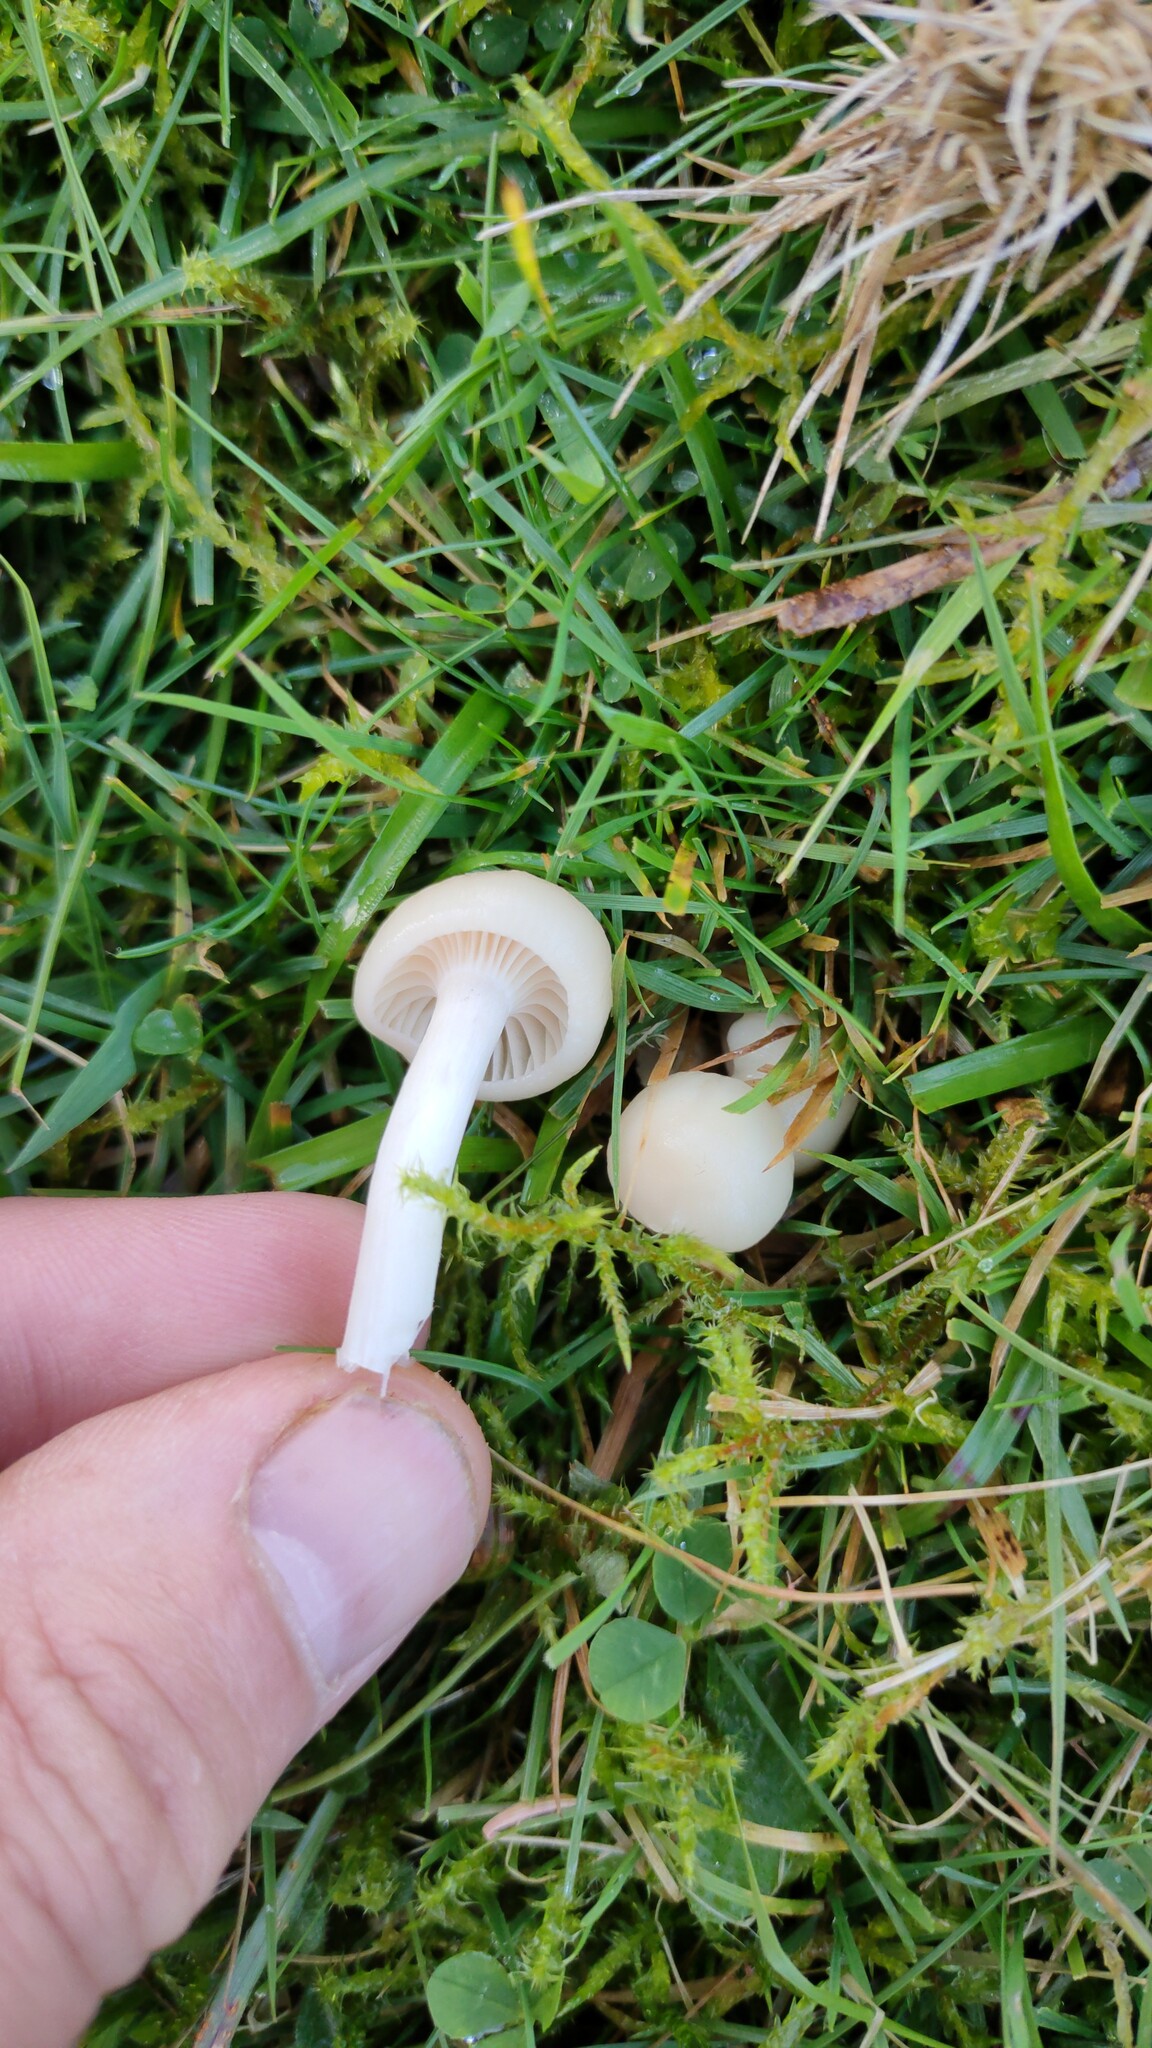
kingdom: Fungi
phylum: Basidiomycota
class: Agaricomycetes
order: Agaricales
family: Hygrophoraceae
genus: Cuphophyllus
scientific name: Cuphophyllus virgineus
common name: Snowy waxcap
